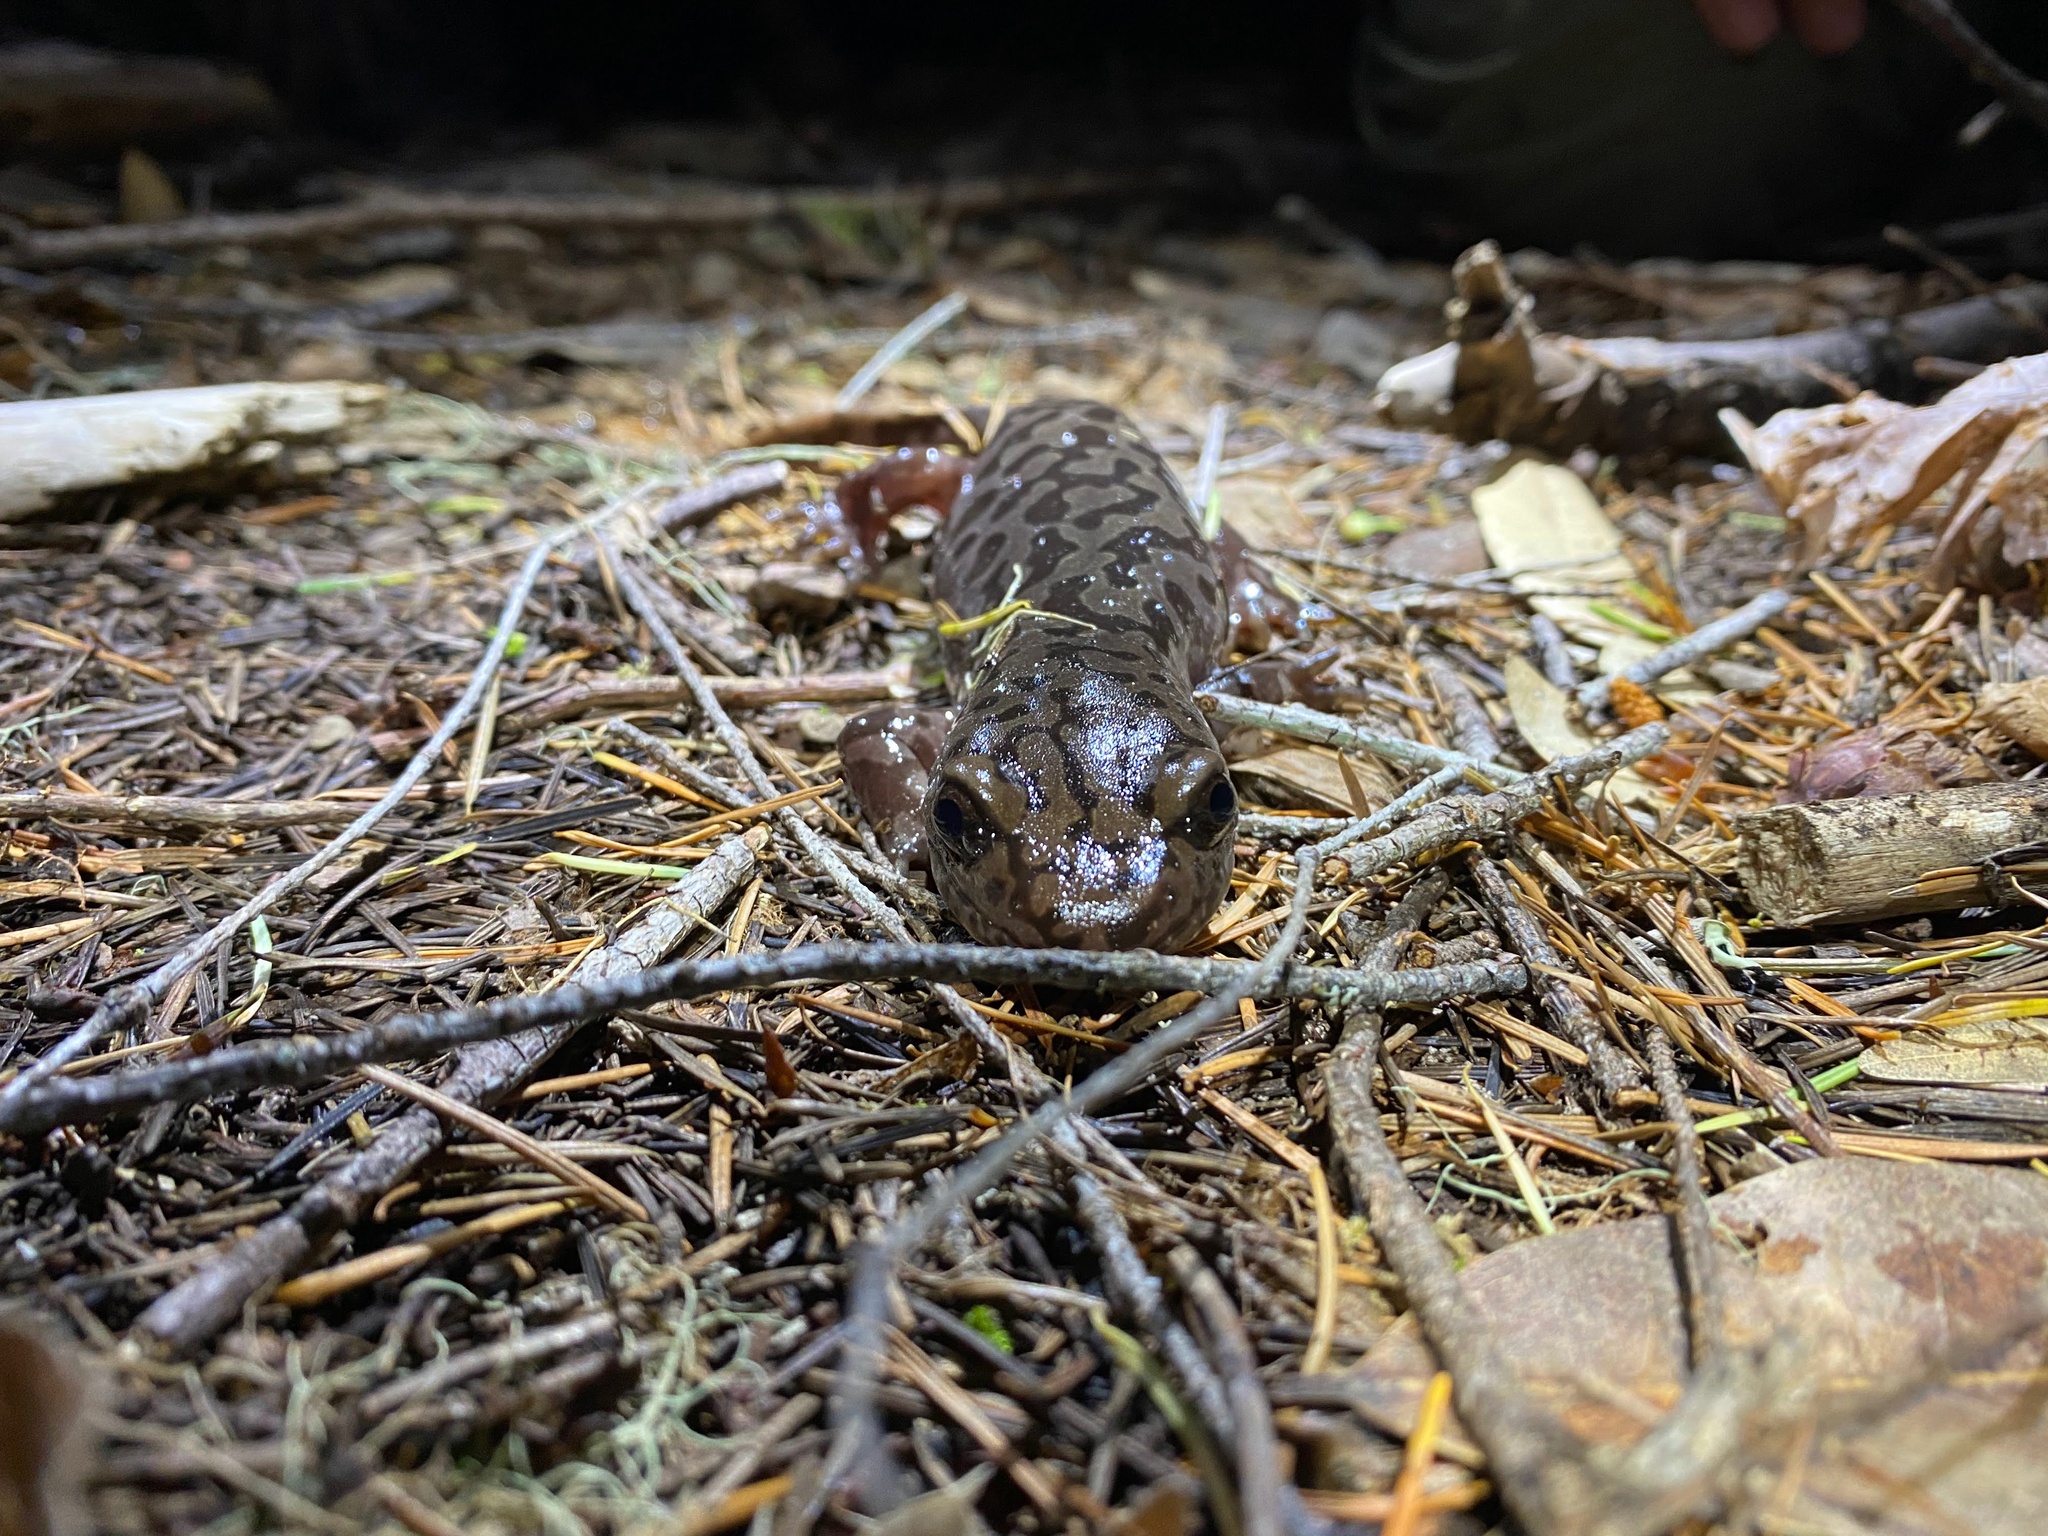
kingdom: Animalia
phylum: Chordata
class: Amphibia
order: Caudata
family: Ambystomatidae
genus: Dicamptodon
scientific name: Dicamptodon tenebrosus
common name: Coastal giant salamander
